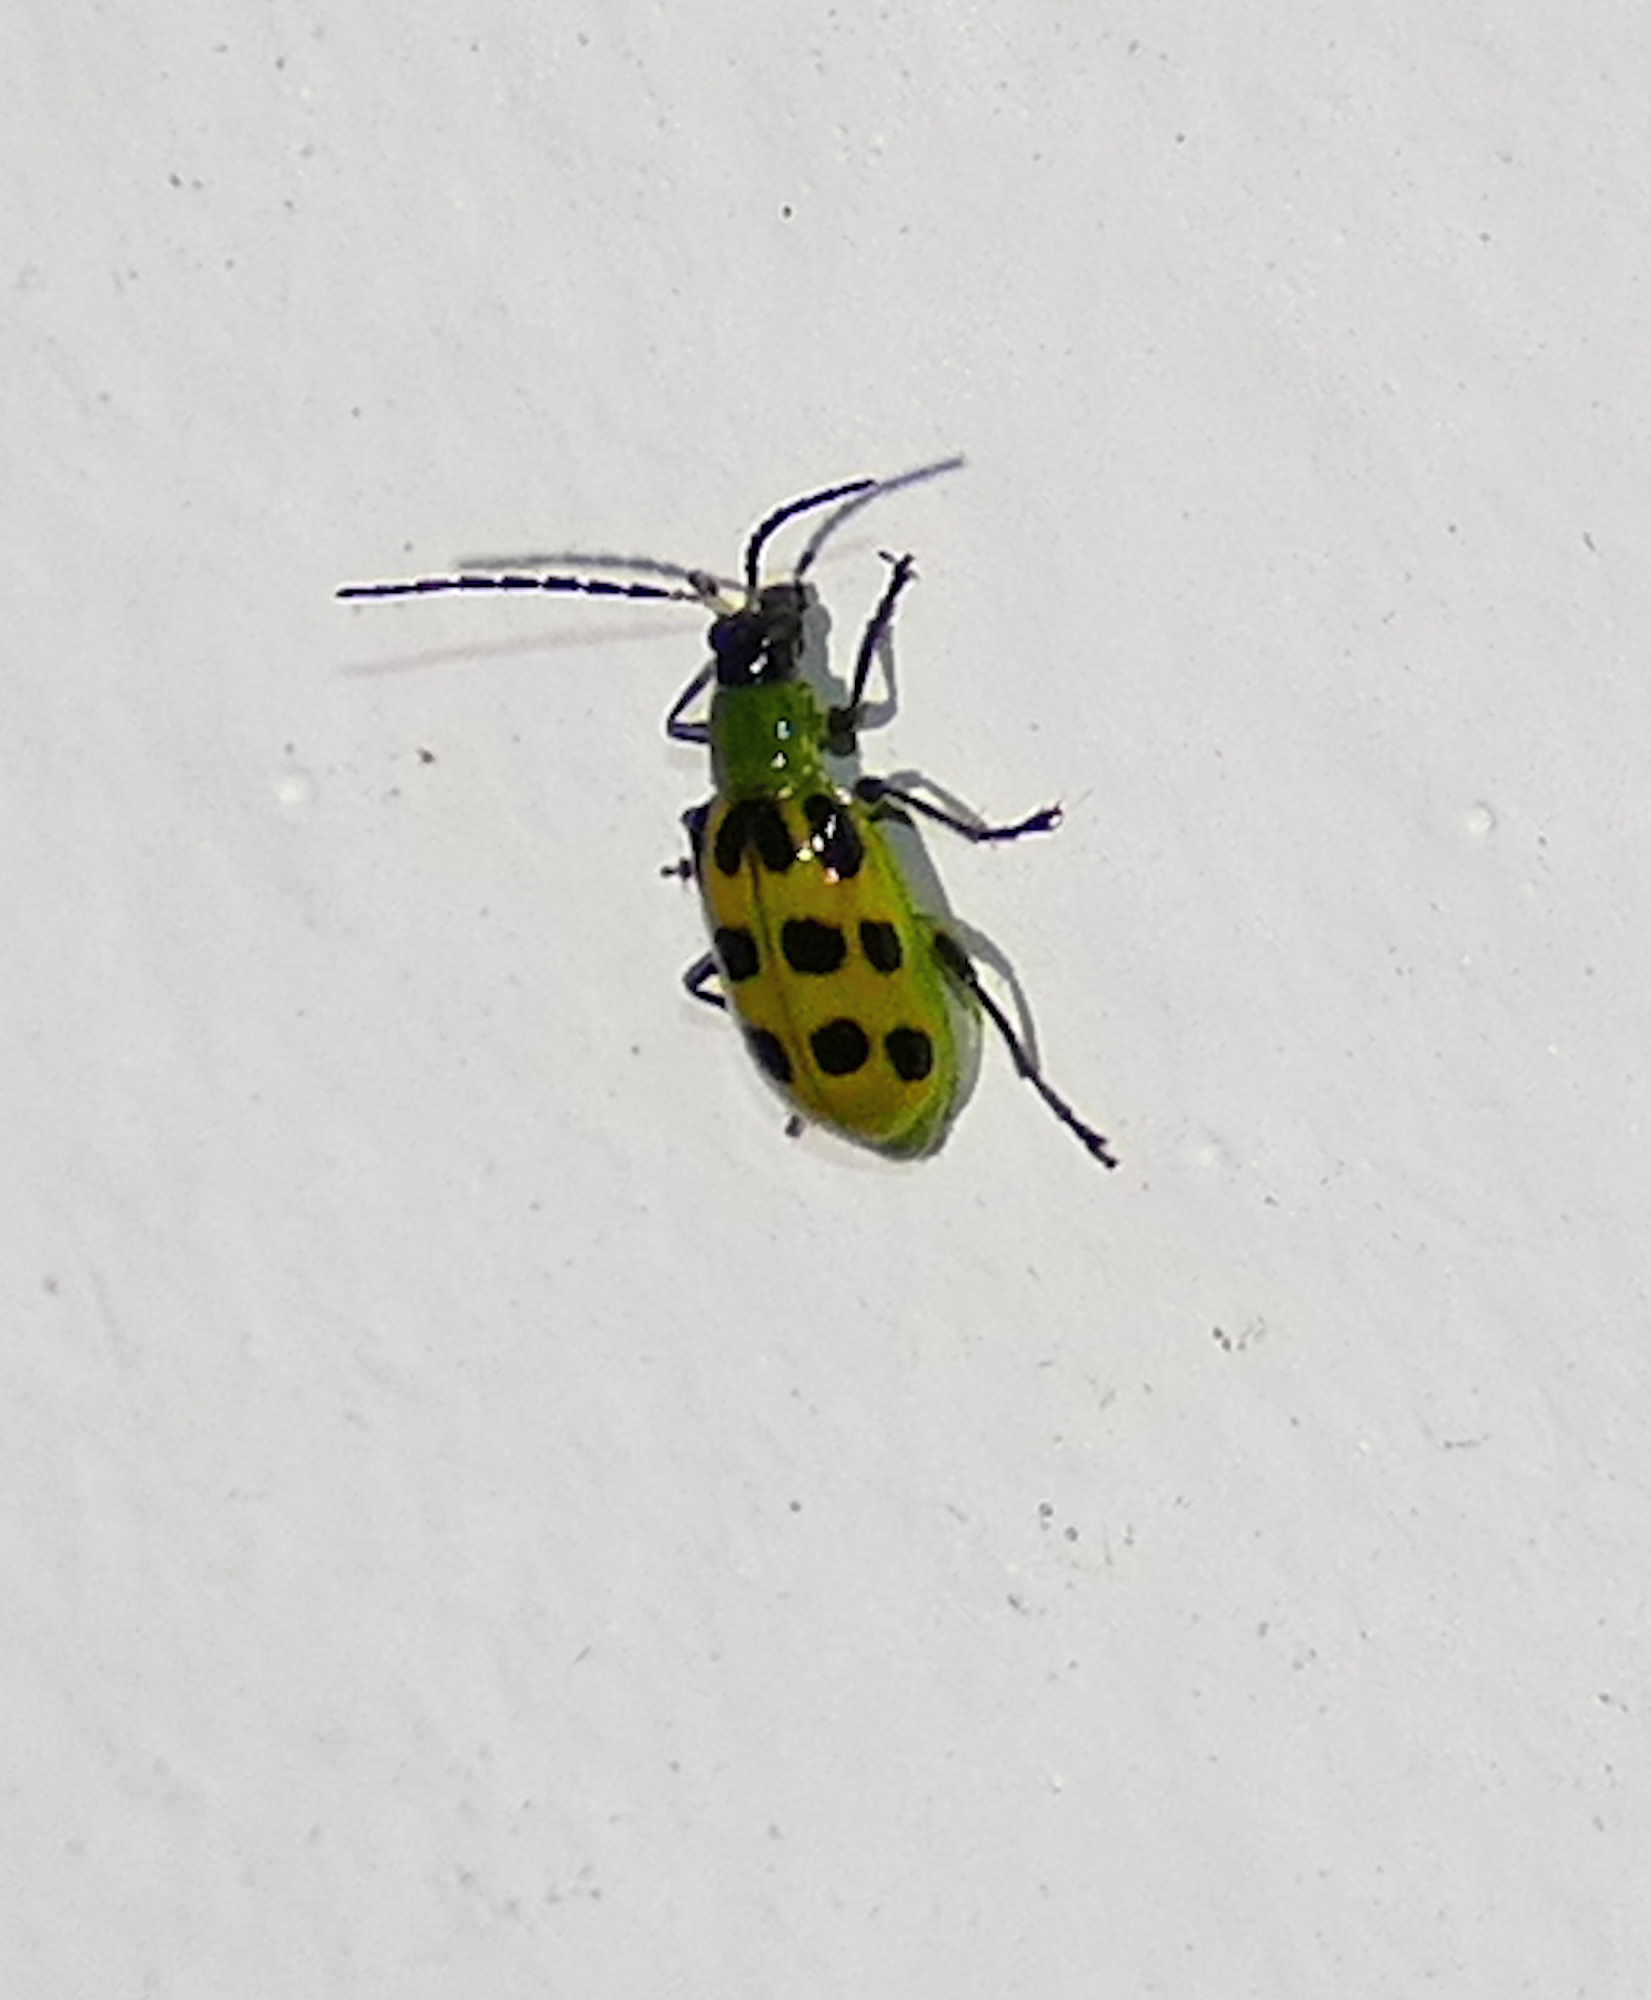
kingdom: Animalia
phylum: Arthropoda
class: Insecta
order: Coleoptera
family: Chrysomelidae
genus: Diabrotica
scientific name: Diabrotica undecimpunctata
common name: Spotted cucumber beetle
